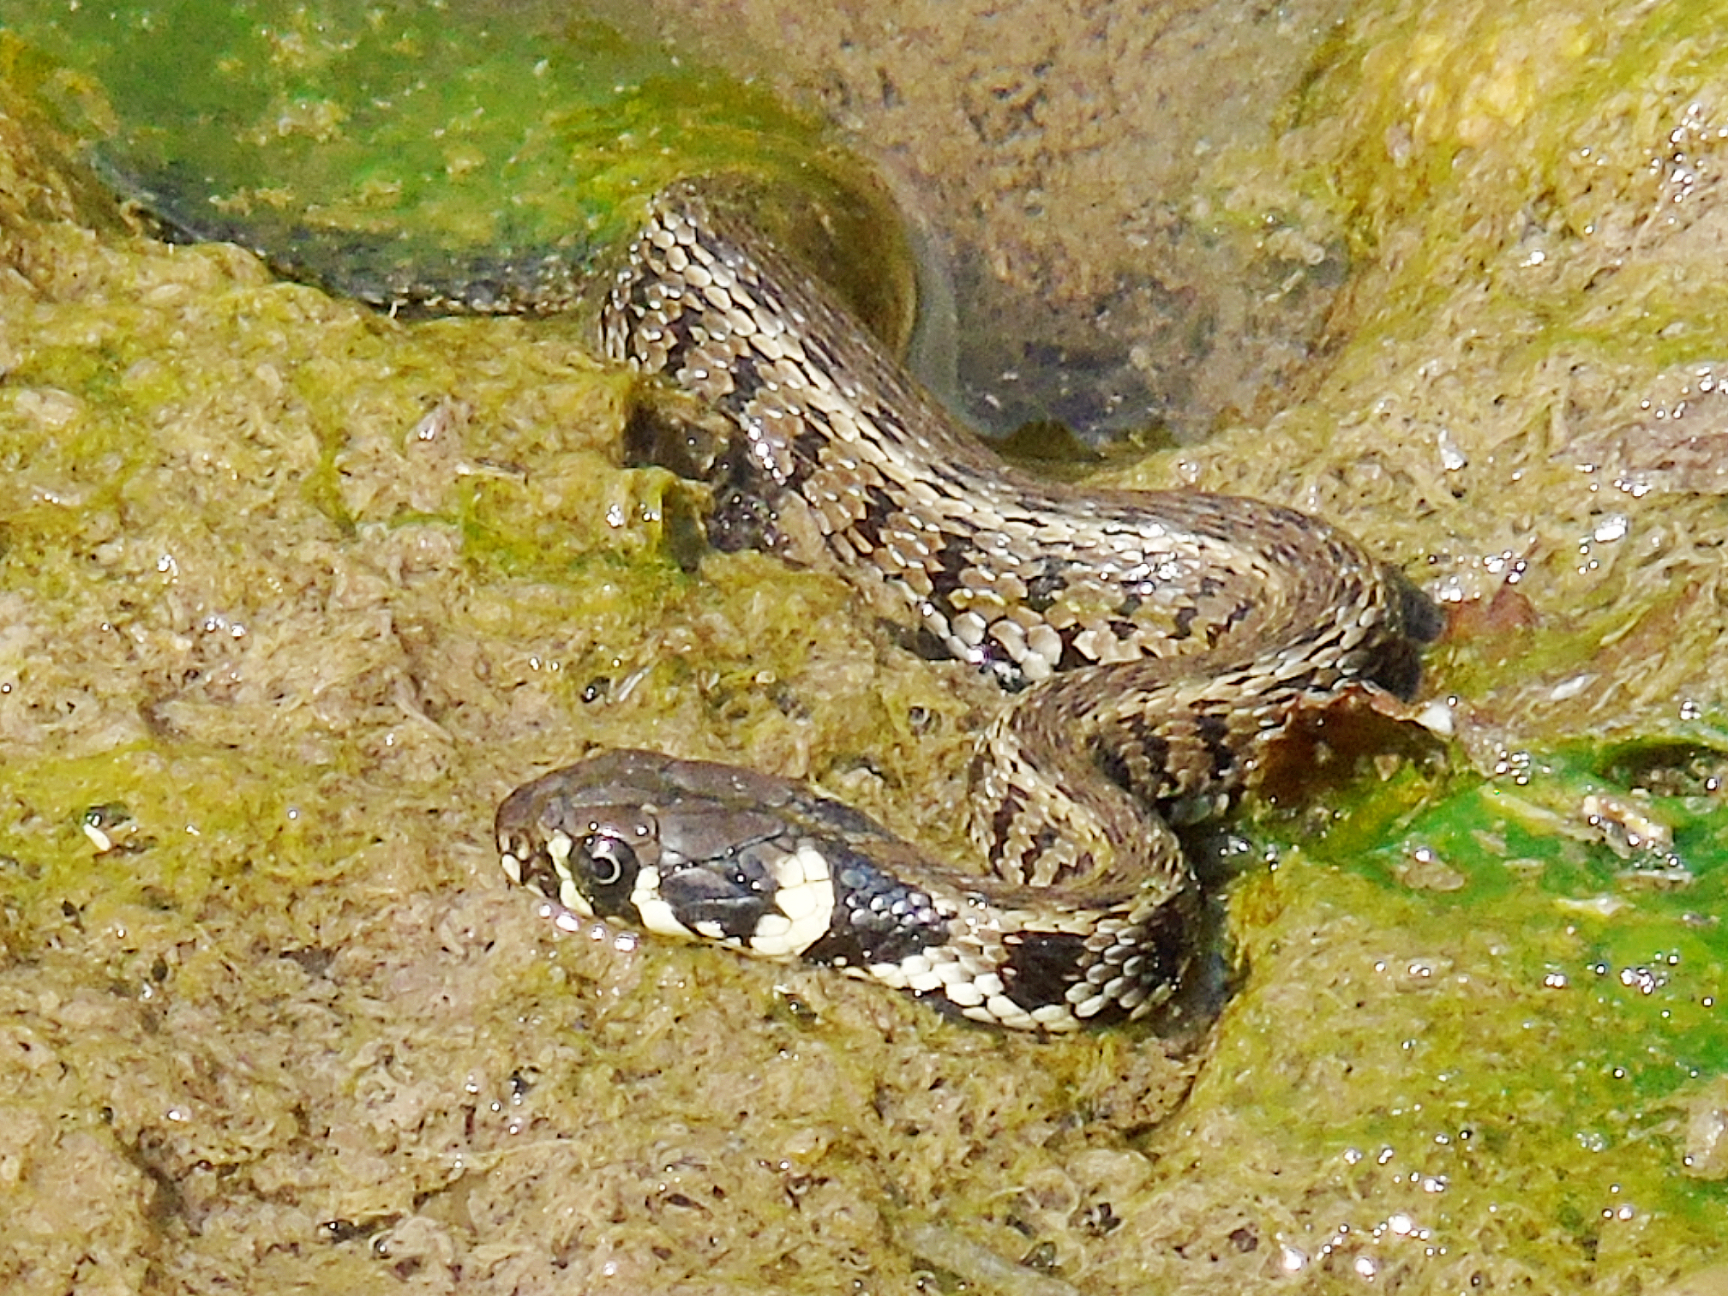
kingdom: Animalia
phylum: Chordata
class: Squamata
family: Colubridae
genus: Natrix
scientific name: Natrix natrix
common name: Grass snake
